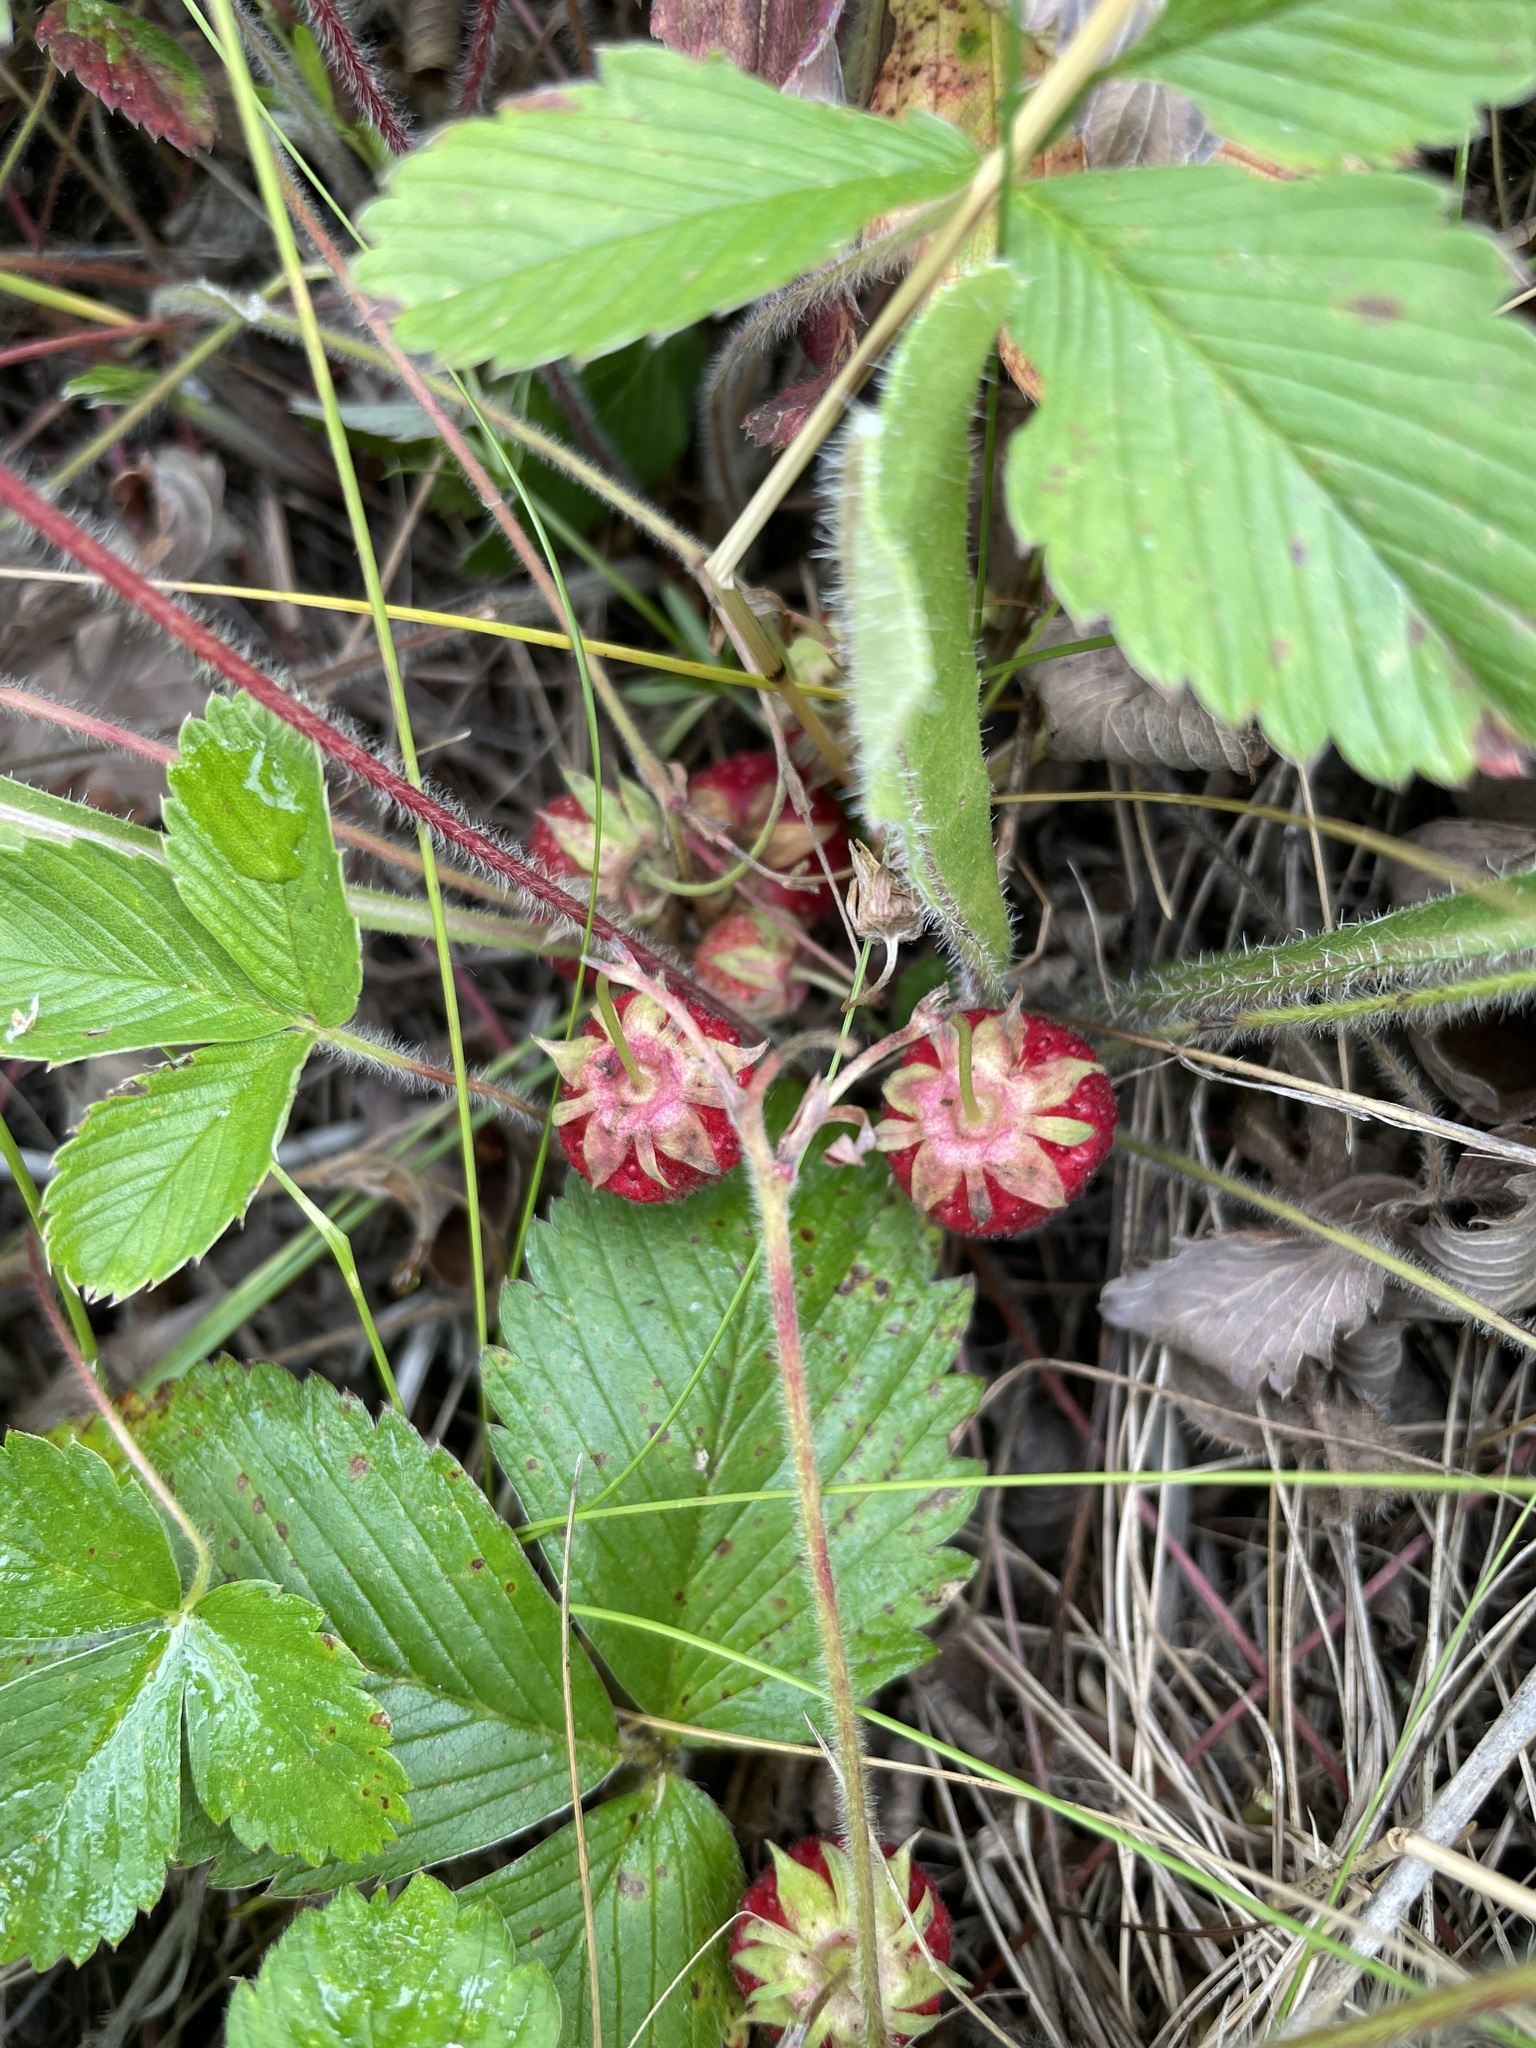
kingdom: Plantae
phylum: Tracheophyta
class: Magnoliopsida
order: Rosales
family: Rosaceae
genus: Fragaria
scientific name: Fragaria viridis
